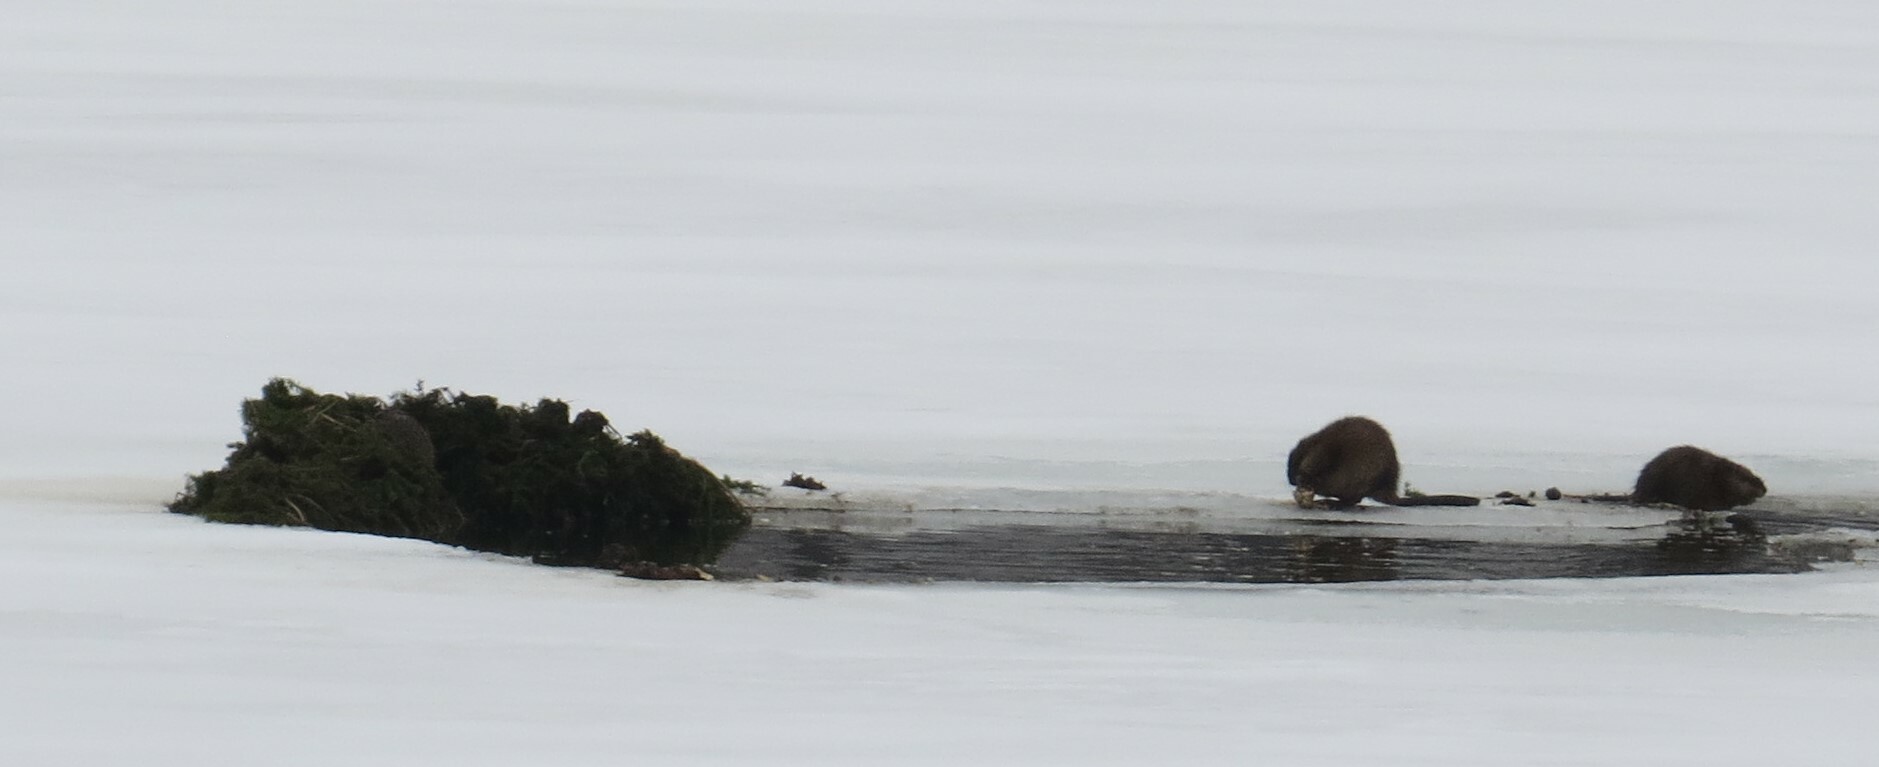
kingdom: Animalia
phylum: Chordata
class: Mammalia
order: Rodentia
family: Cricetidae
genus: Ondatra
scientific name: Ondatra zibethicus
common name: Muskrat
